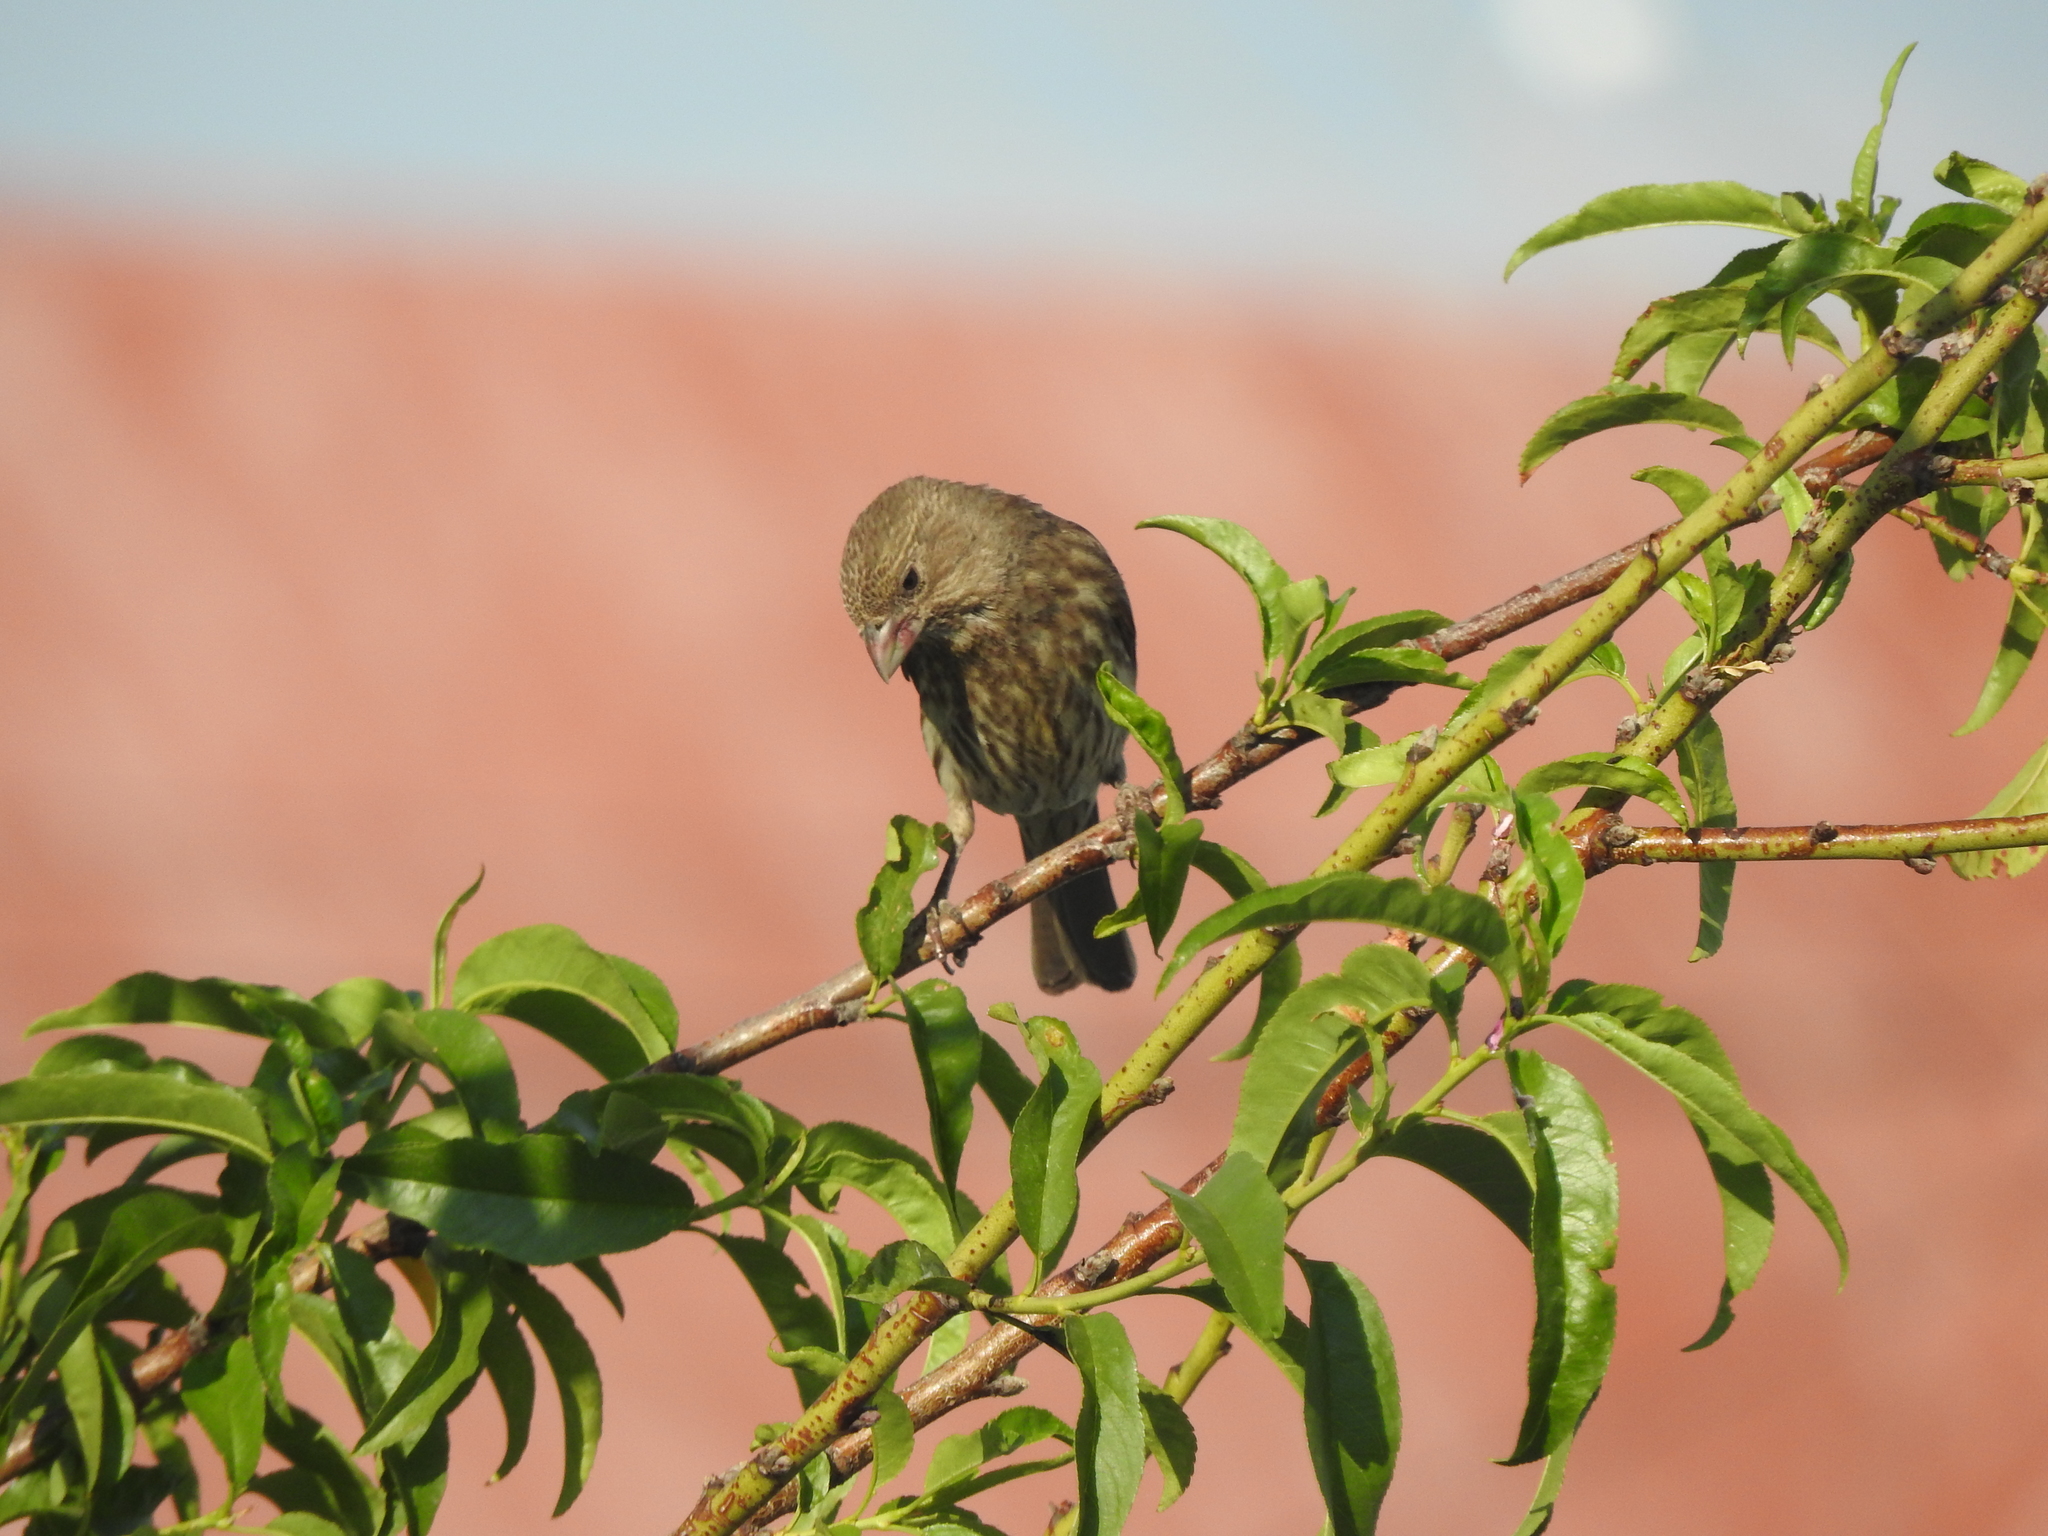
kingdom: Animalia
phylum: Chordata
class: Aves
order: Passeriformes
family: Fringillidae
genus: Haemorhous
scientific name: Haemorhous mexicanus
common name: House finch
